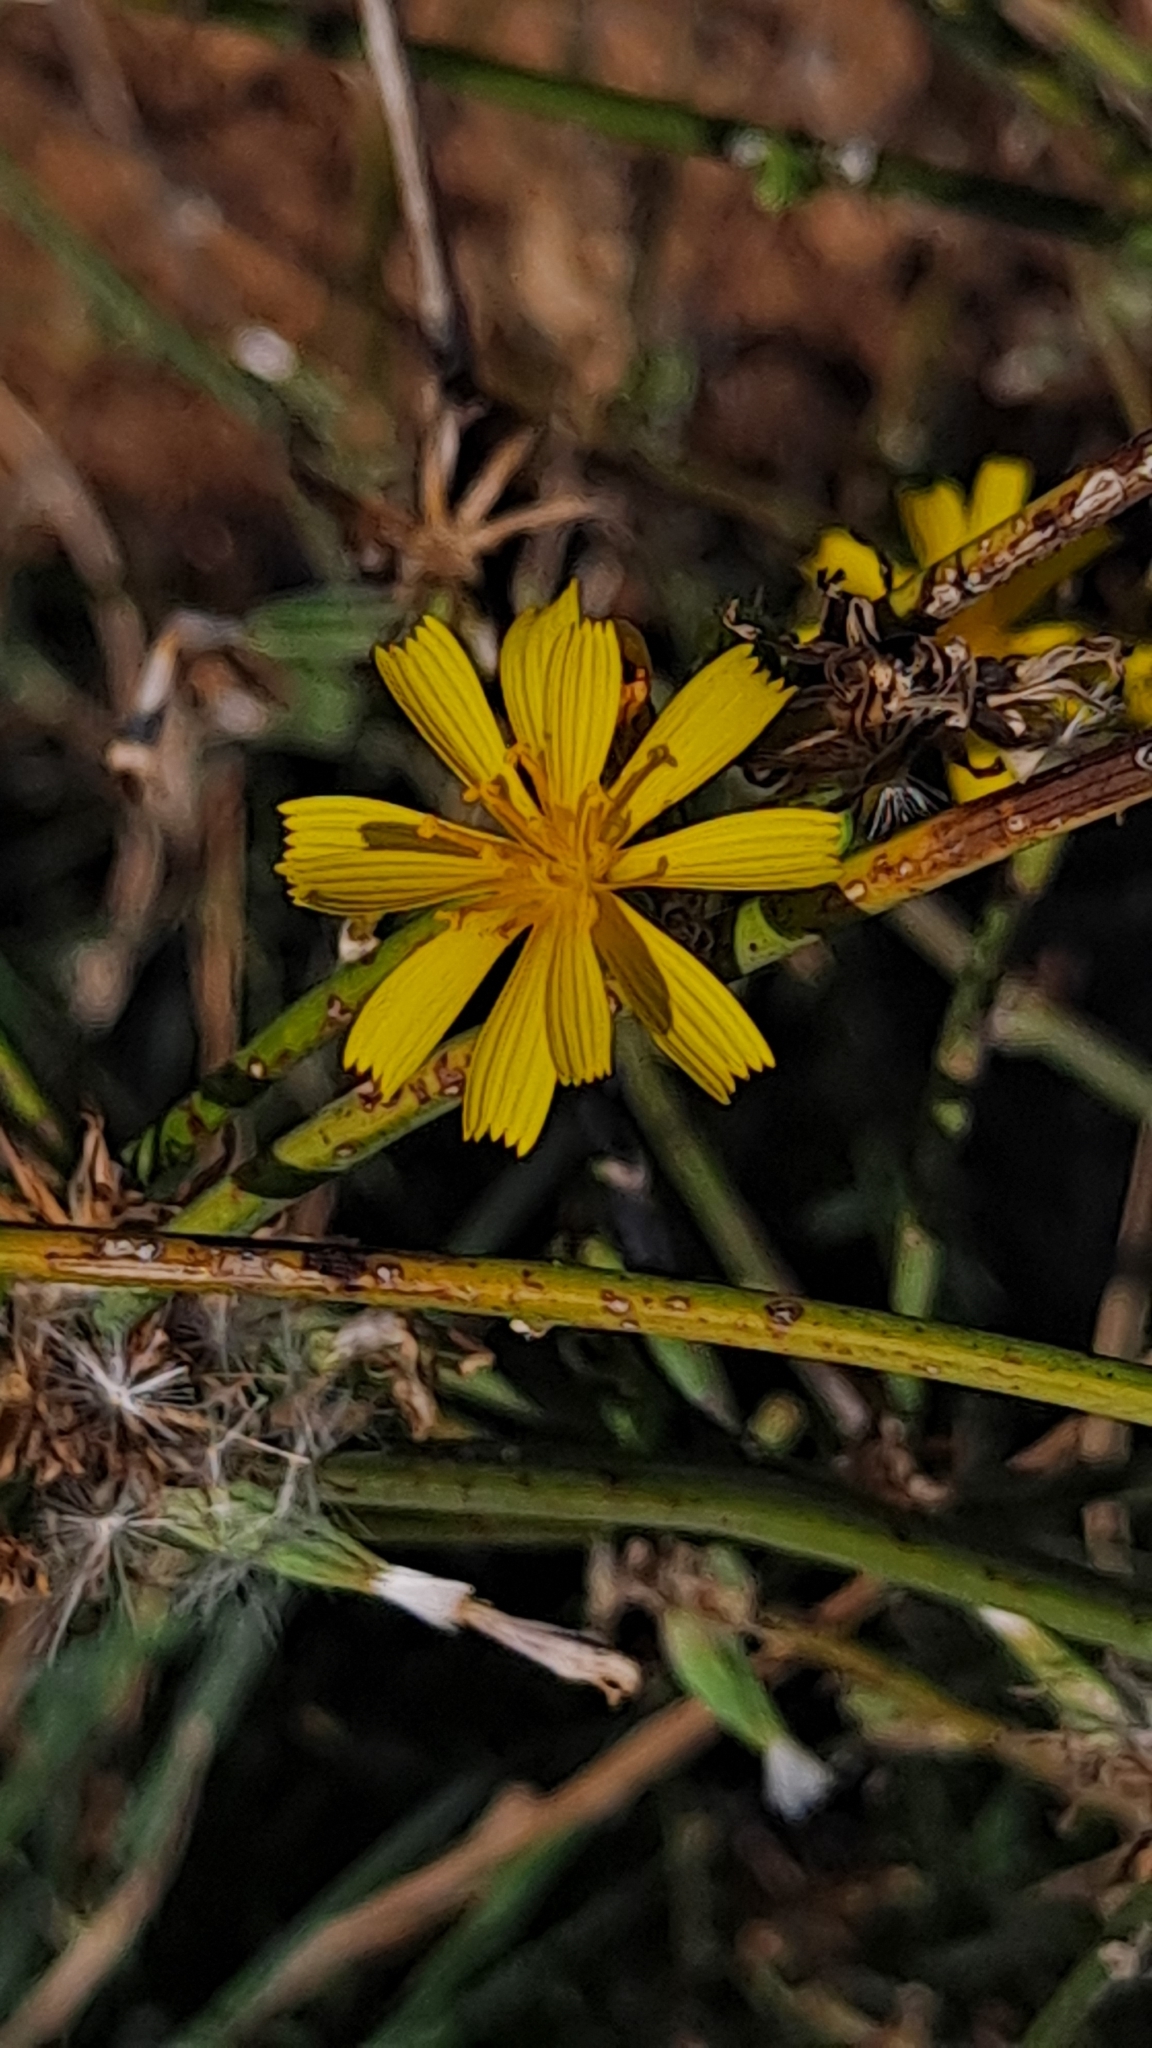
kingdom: Plantae
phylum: Tracheophyta
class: Magnoliopsida
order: Asterales
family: Asteraceae
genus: Chondrilla
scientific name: Chondrilla juncea
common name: Skeleton weed
